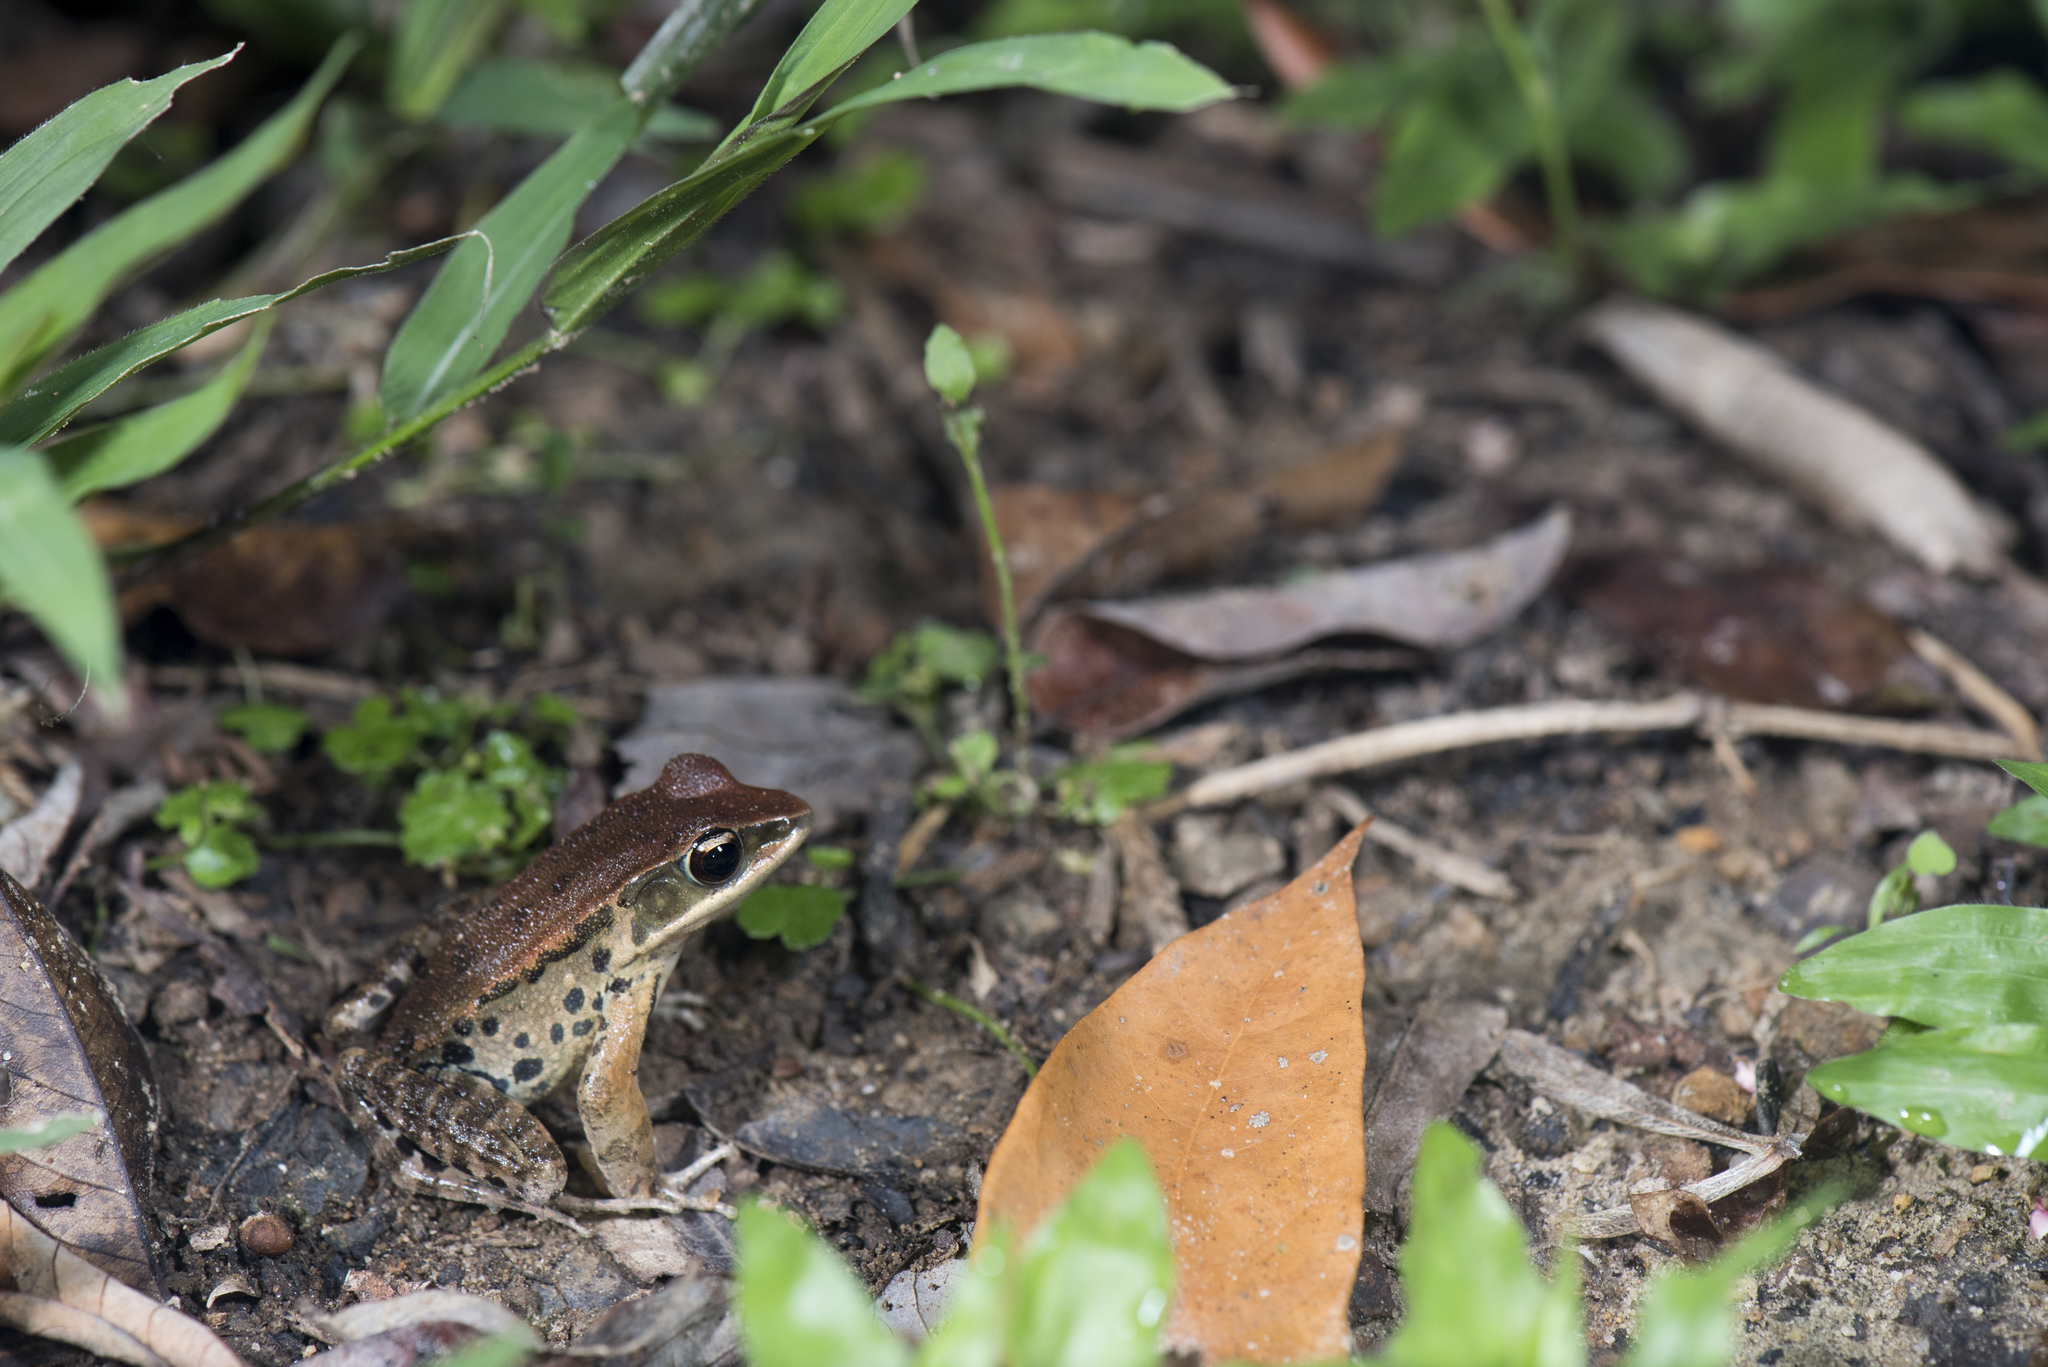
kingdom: Animalia
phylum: Chordata
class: Amphibia
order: Anura
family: Ranidae
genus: Hylarana
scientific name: Hylarana latouchii
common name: Broad-folded frog
